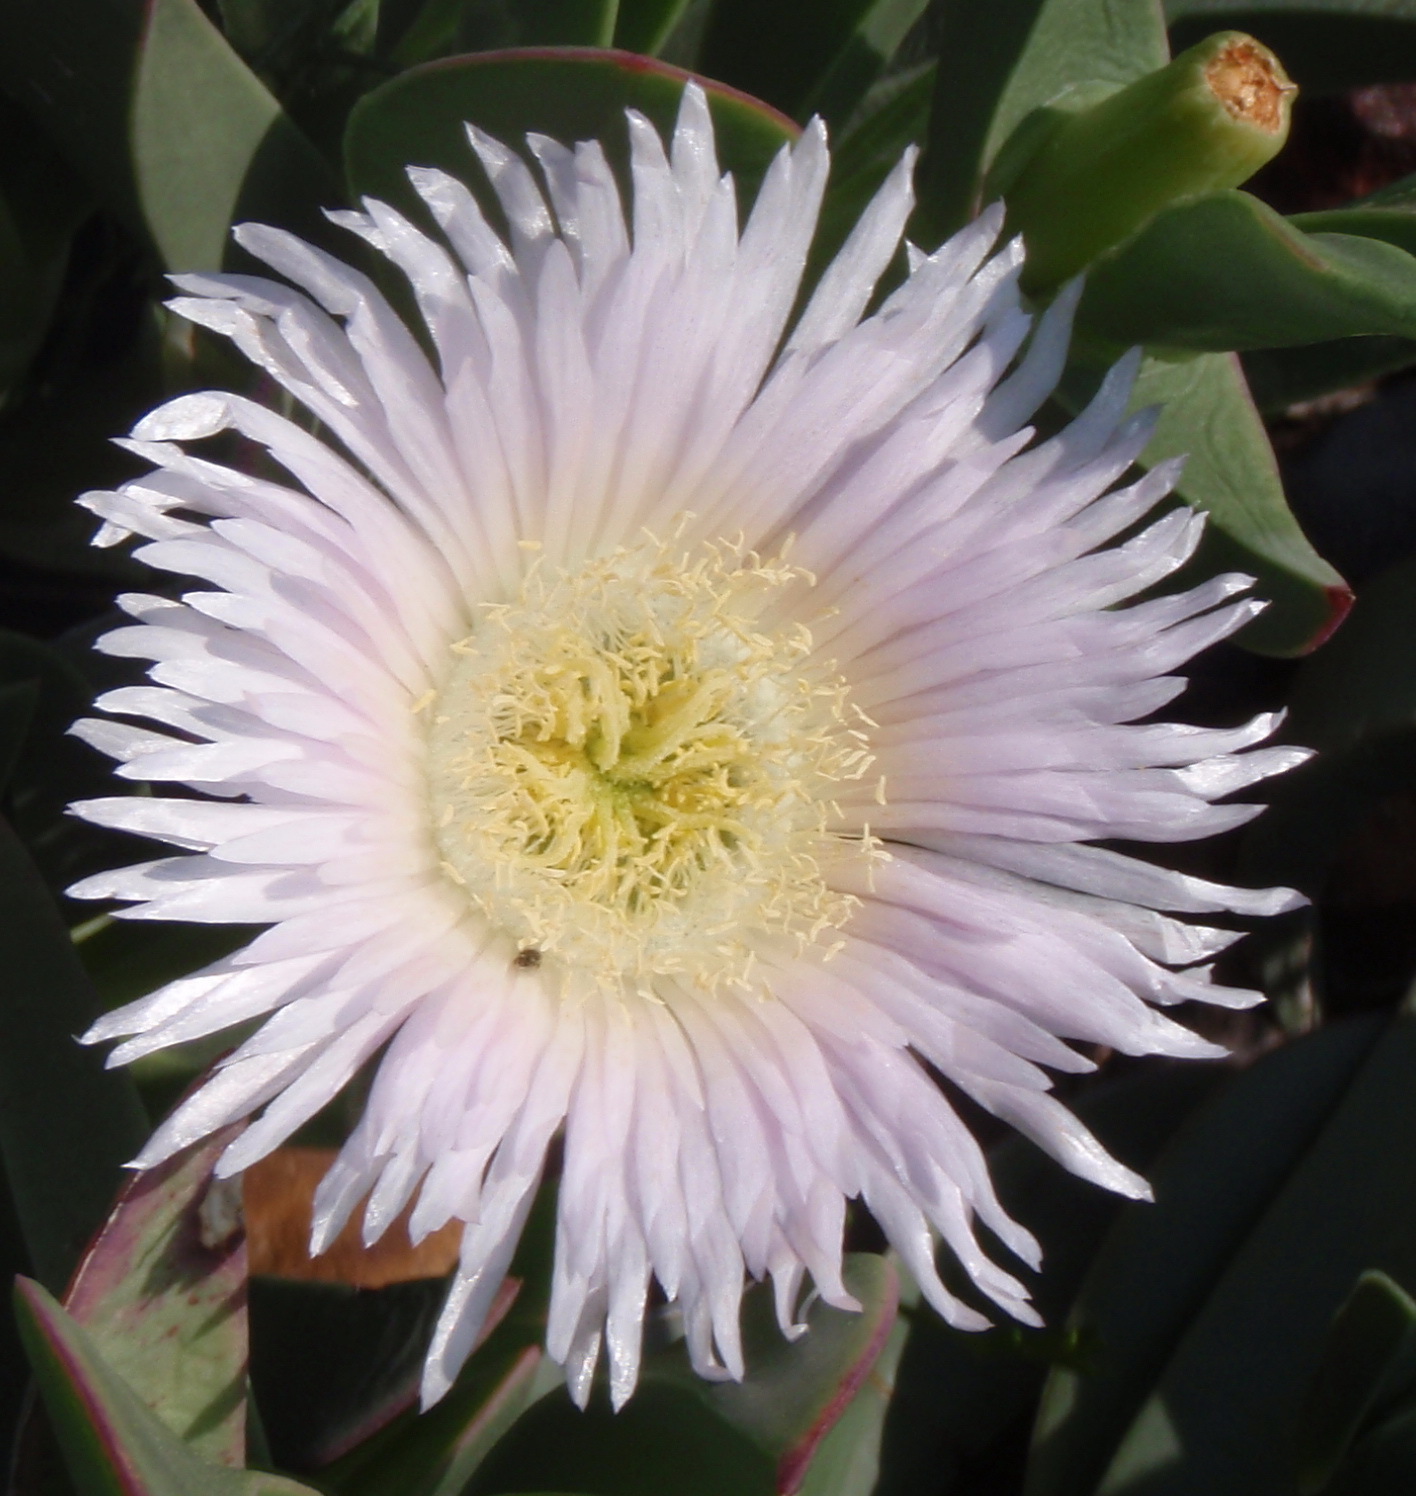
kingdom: Plantae
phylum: Tracheophyta
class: Magnoliopsida
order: Caryophyllales
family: Aizoaceae
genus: Carpobrotus
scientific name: Carpobrotus mellei
